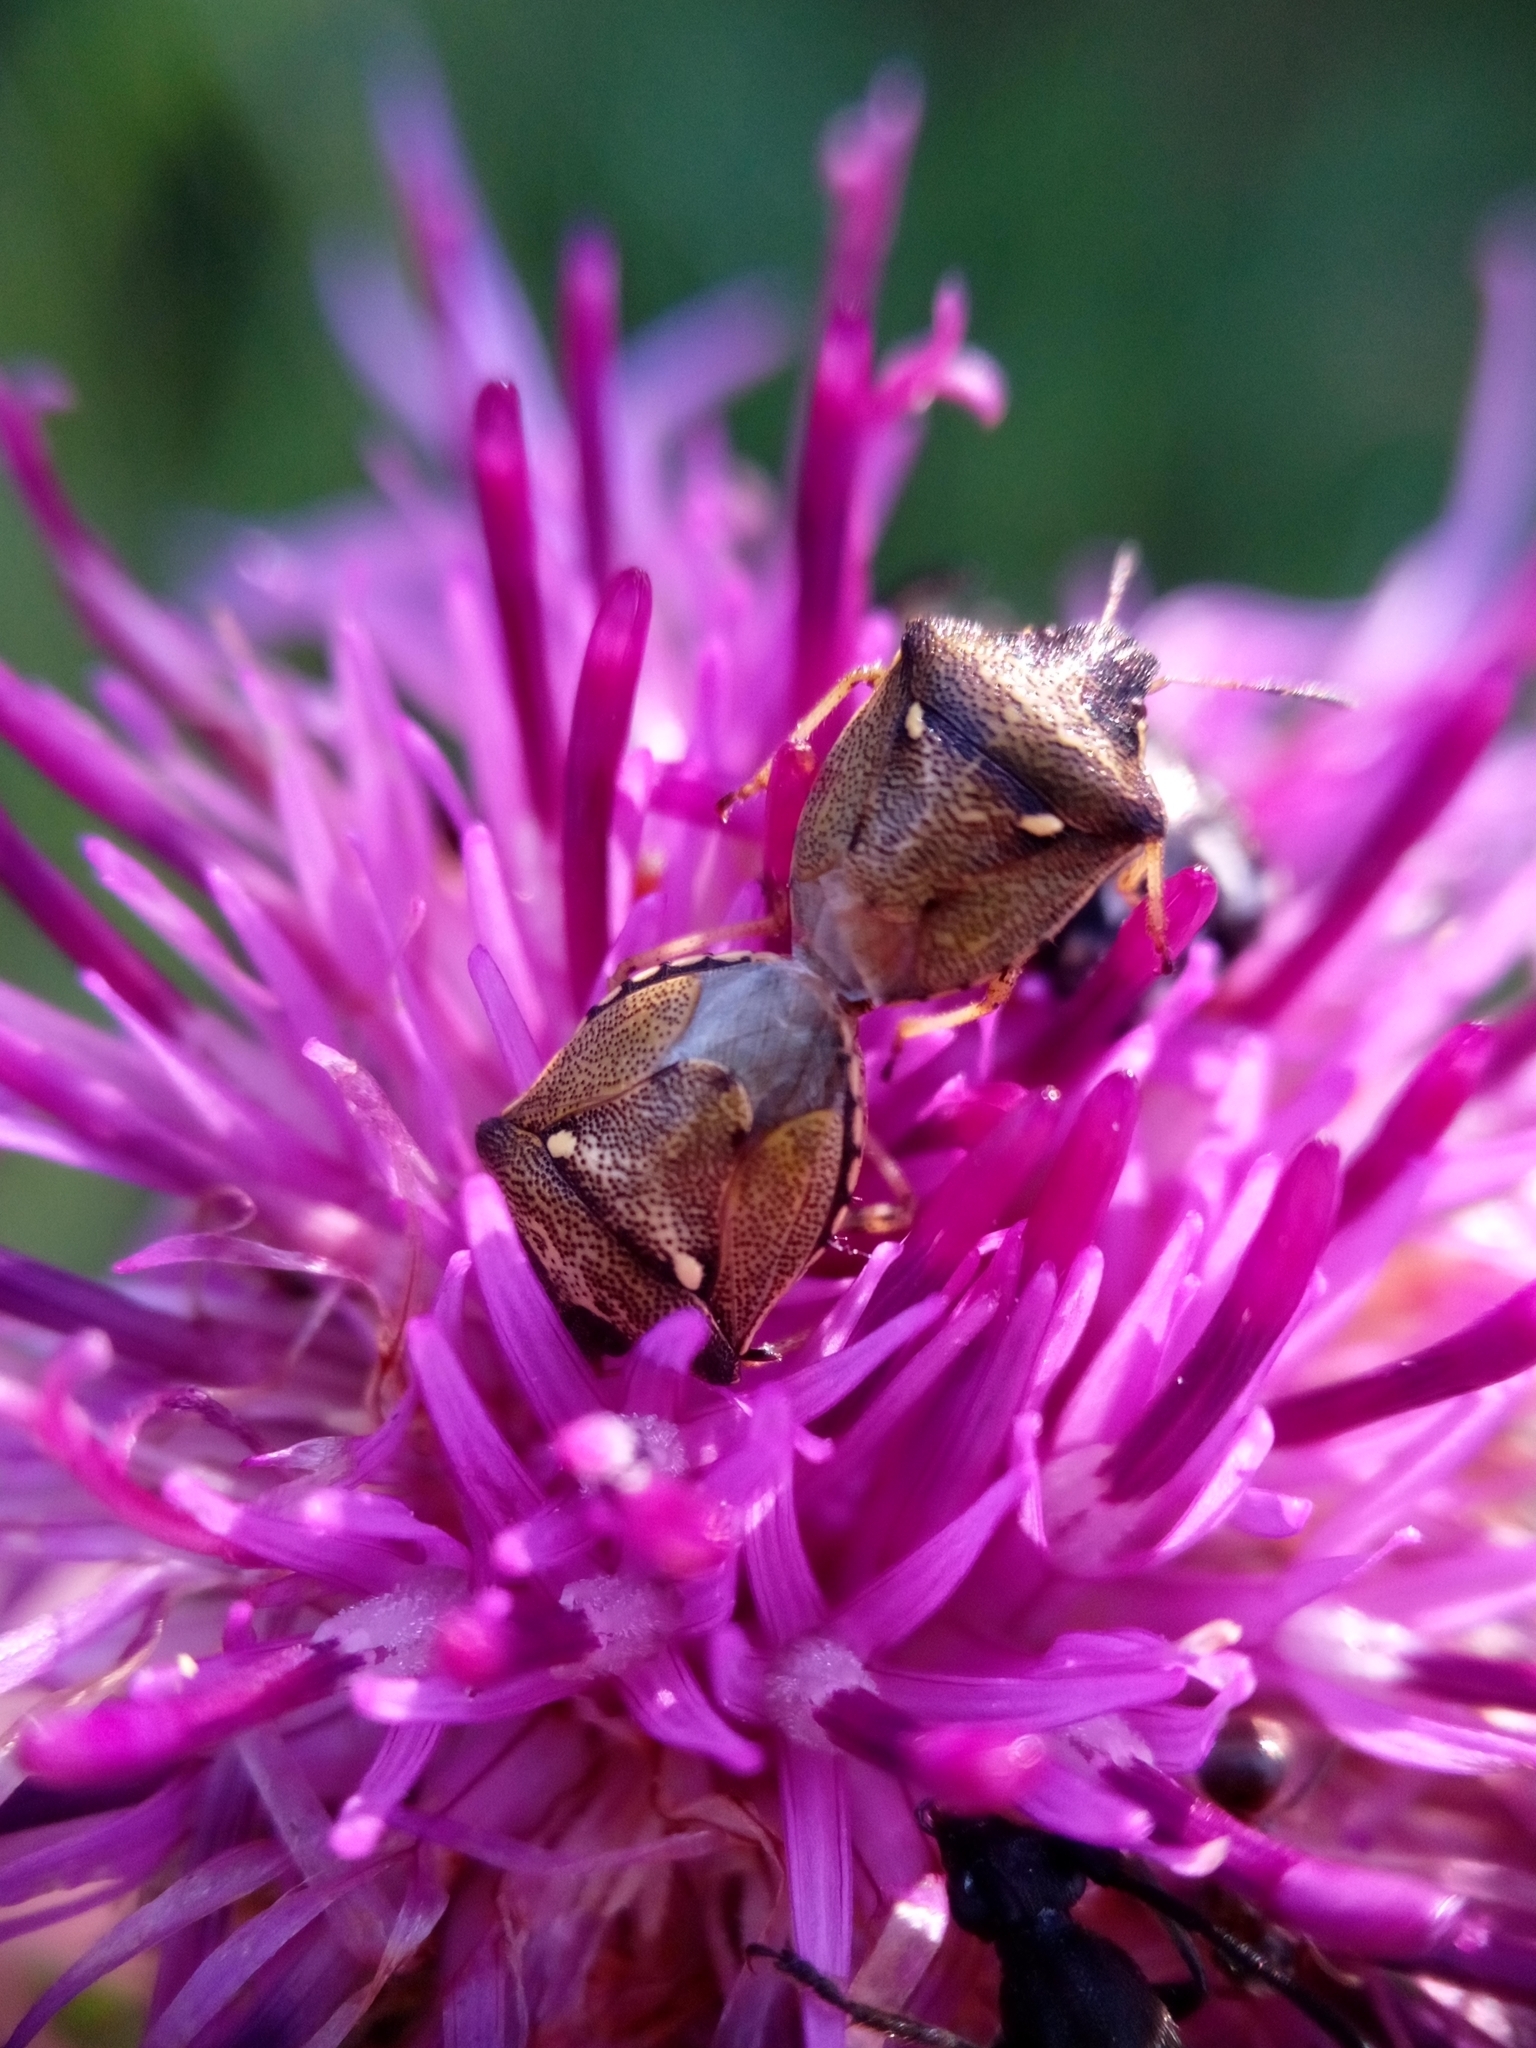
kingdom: Animalia
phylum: Arthropoda
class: Insecta
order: Hemiptera
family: Pentatomidae
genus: Eysarcoris
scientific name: Eysarcoris aeneus
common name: New forest shieldbug
